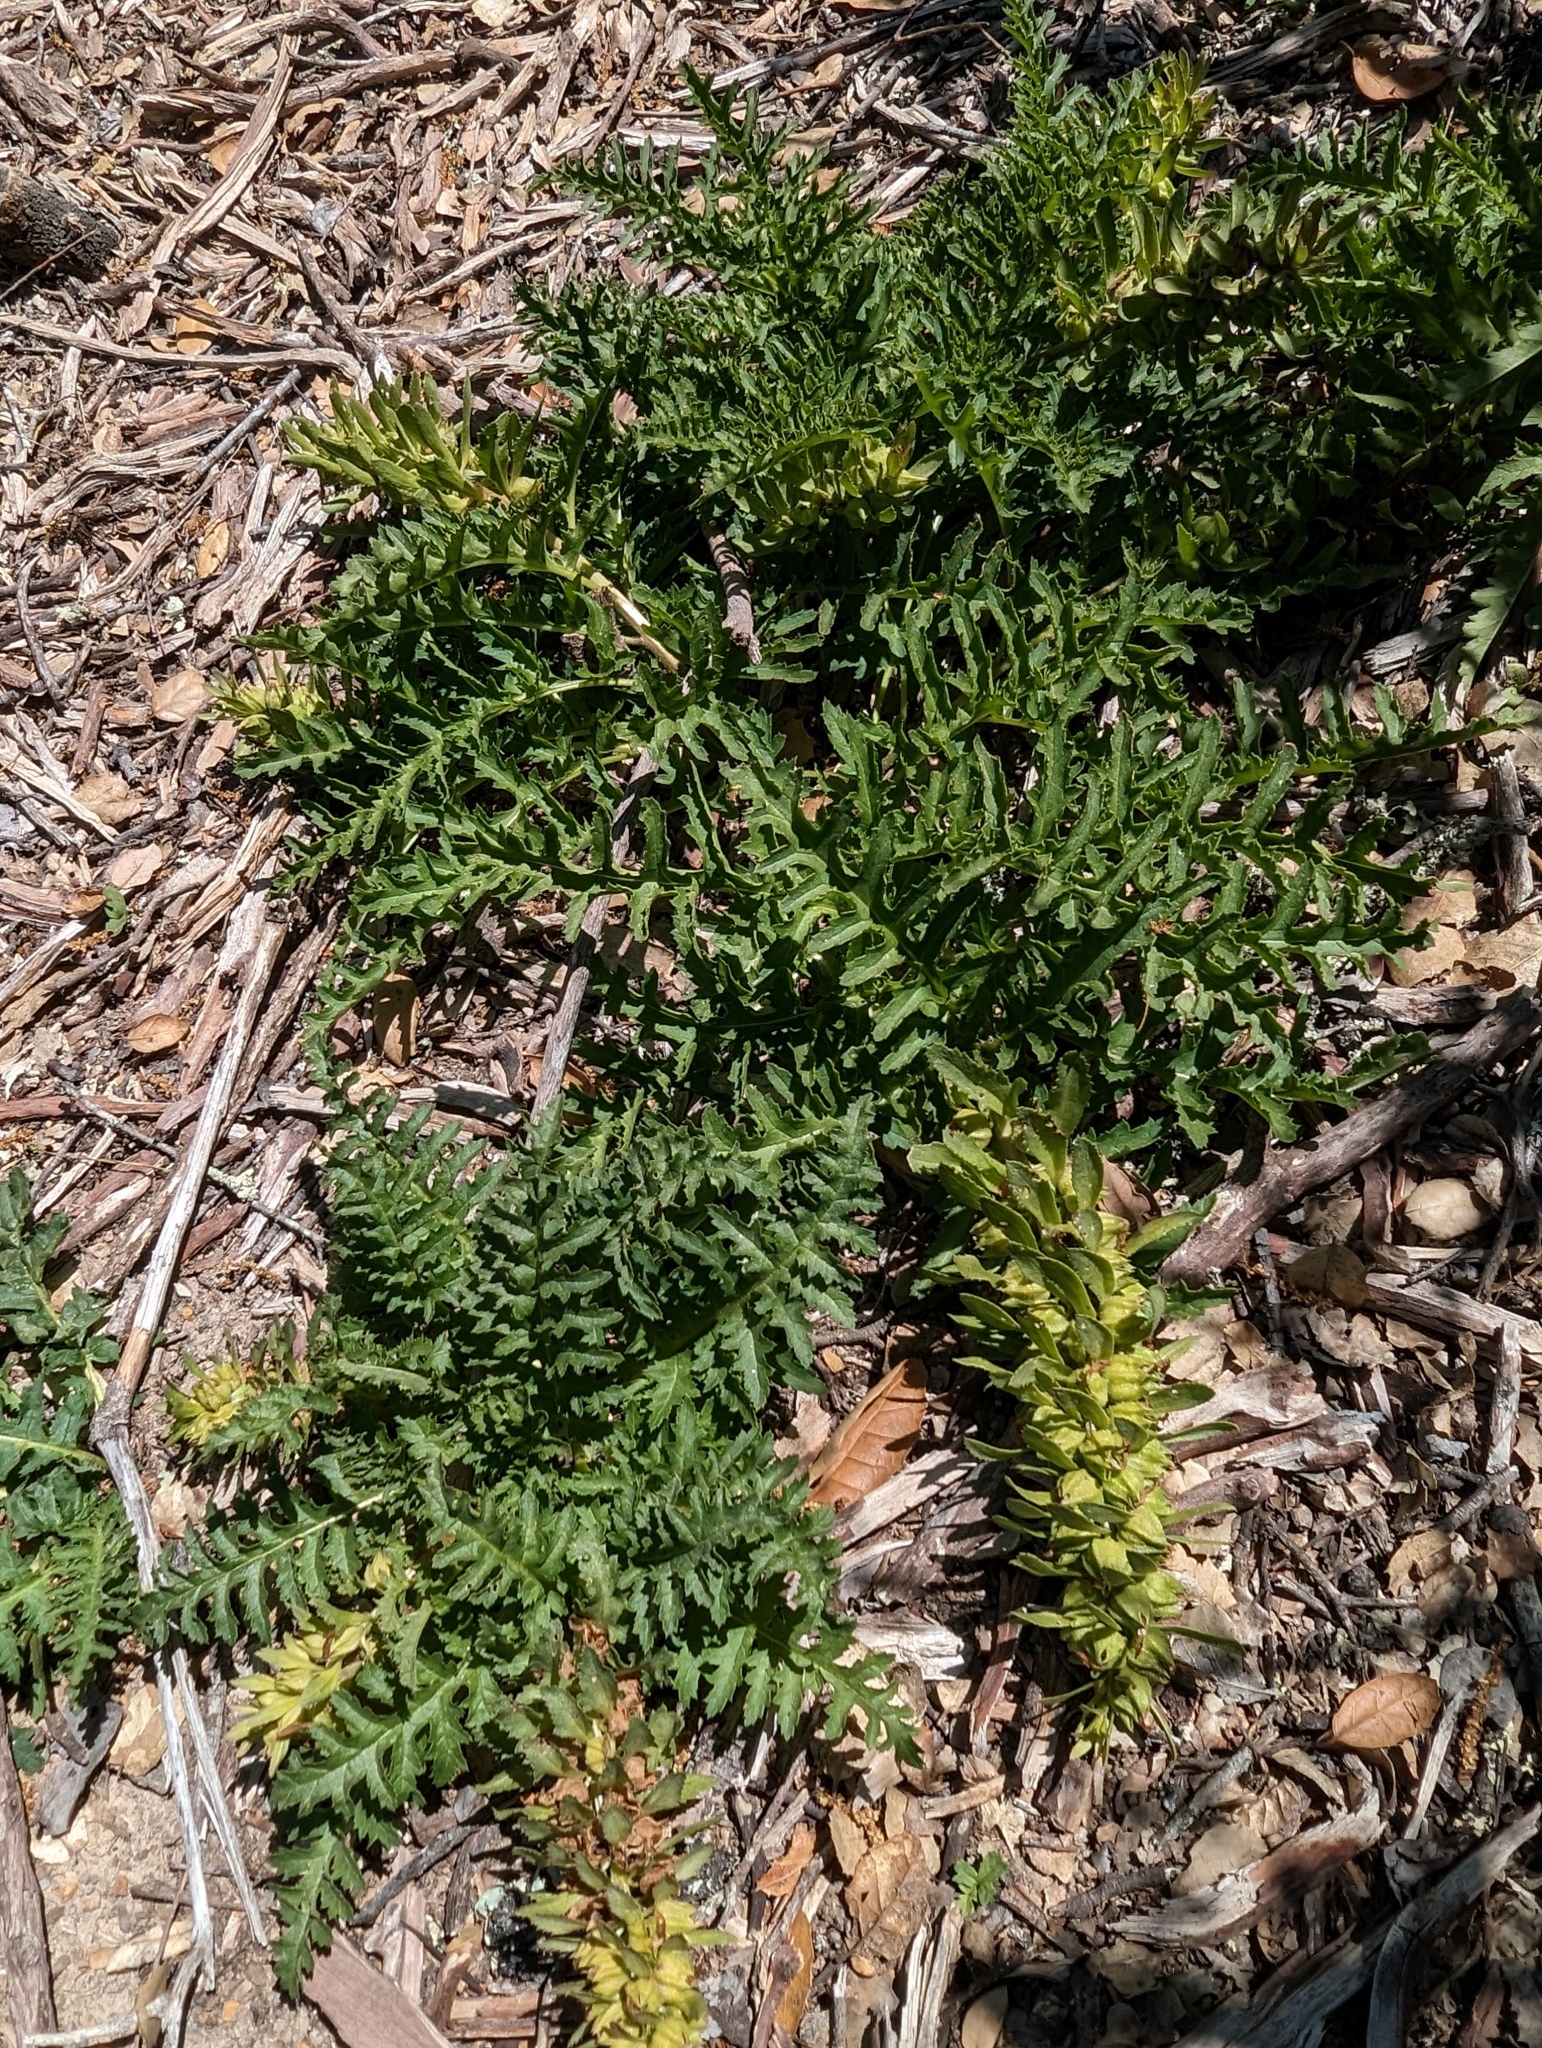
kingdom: Plantae
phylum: Tracheophyta
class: Magnoliopsida
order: Lamiales
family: Orobanchaceae
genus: Pedicularis
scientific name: Pedicularis densiflora
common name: Indian warrior
